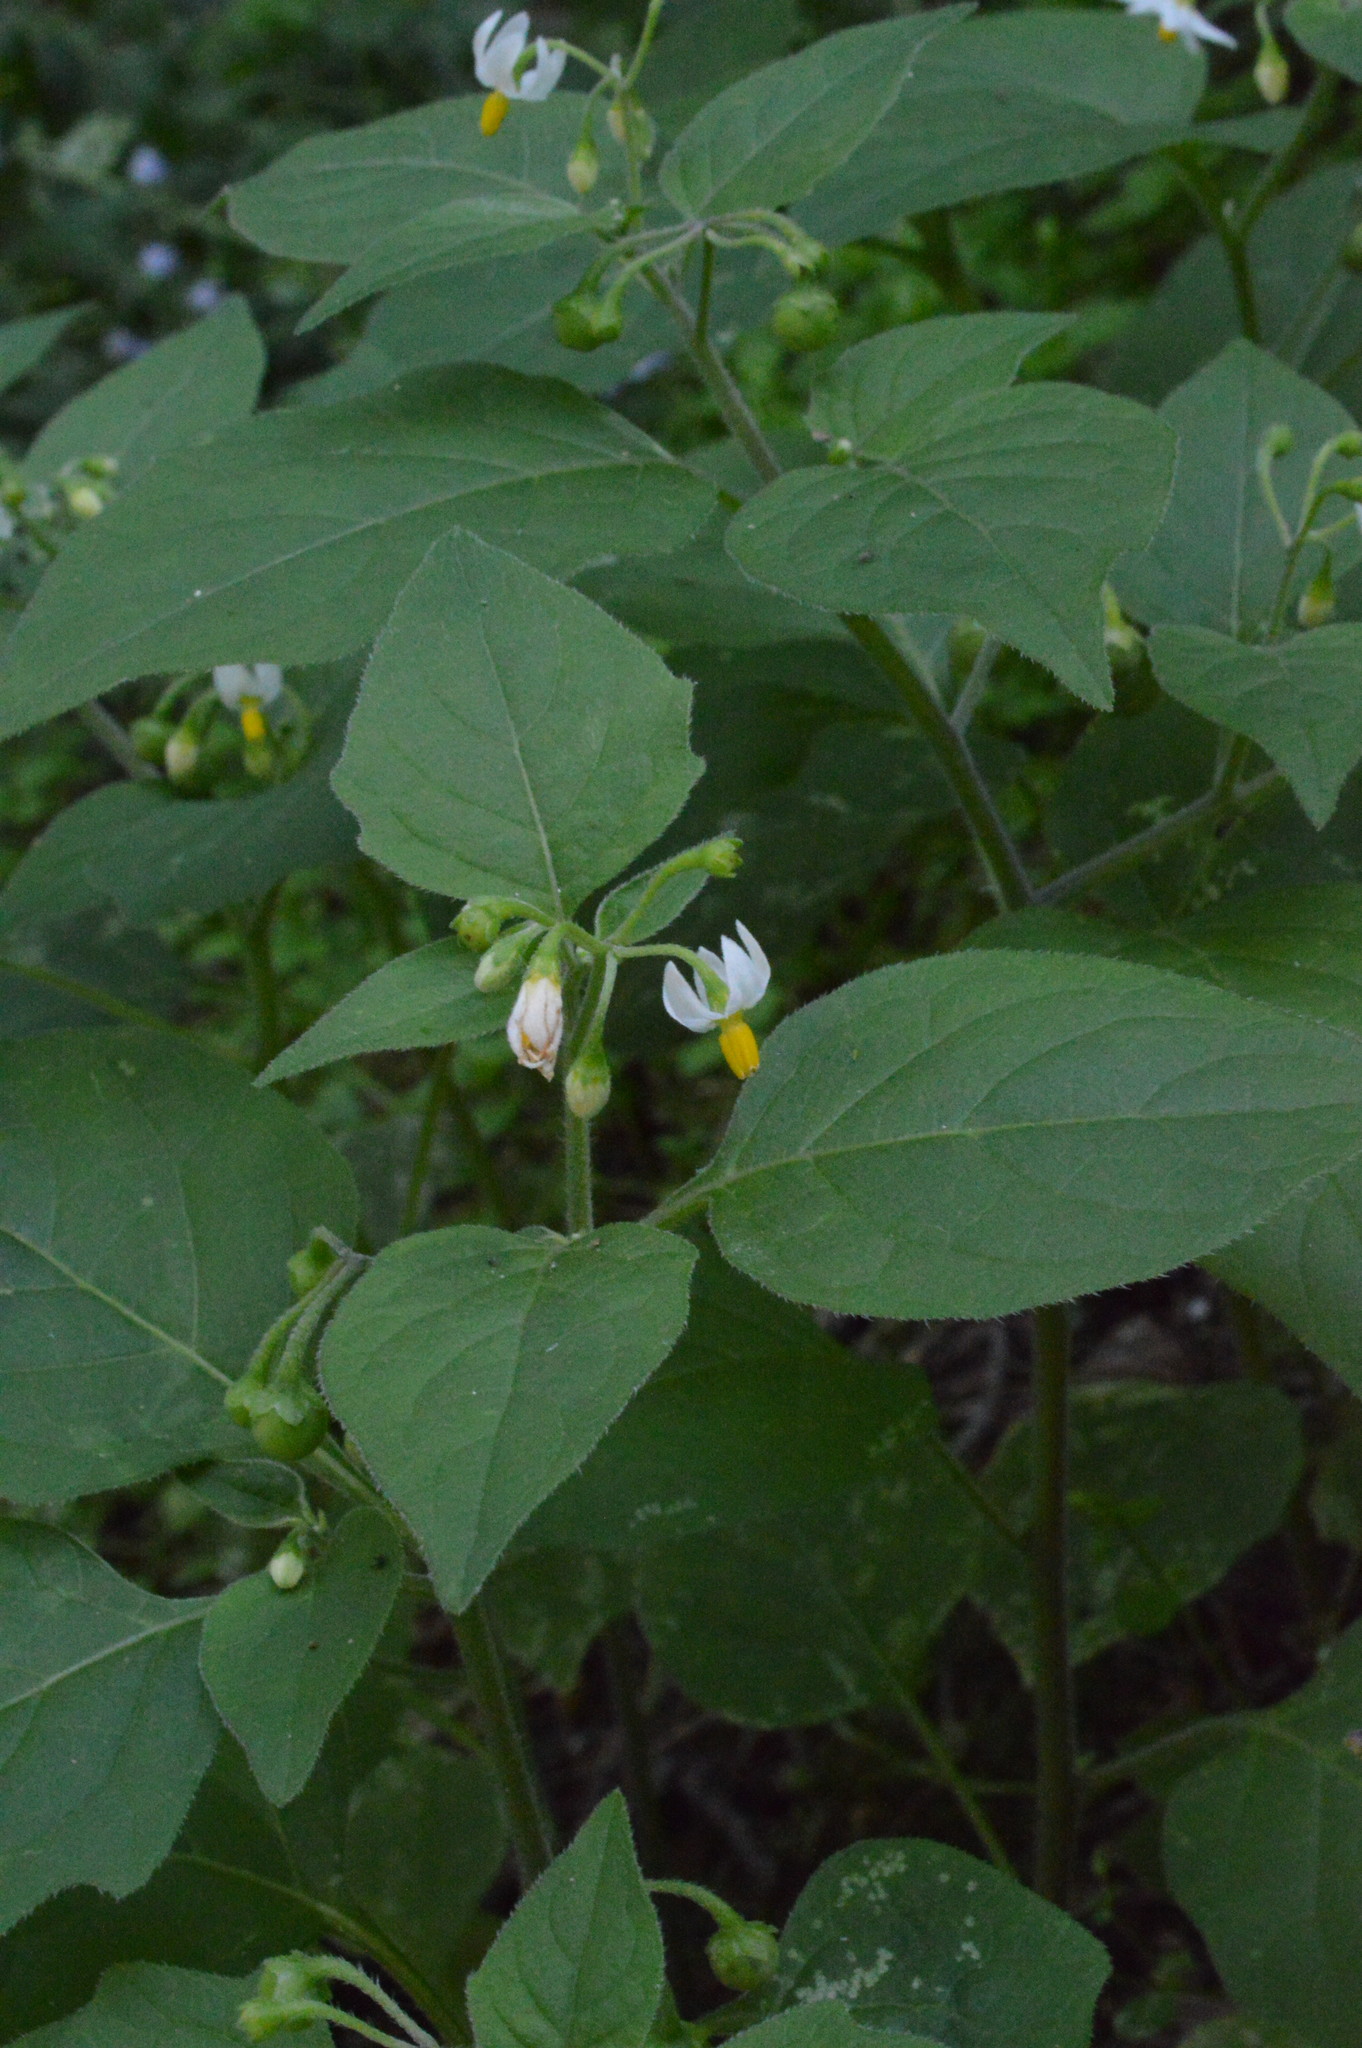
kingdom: Plantae
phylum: Tracheophyta
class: Magnoliopsida
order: Solanales
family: Solanaceae
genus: Solanum
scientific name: Solanum nigrum
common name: Black nightshade
